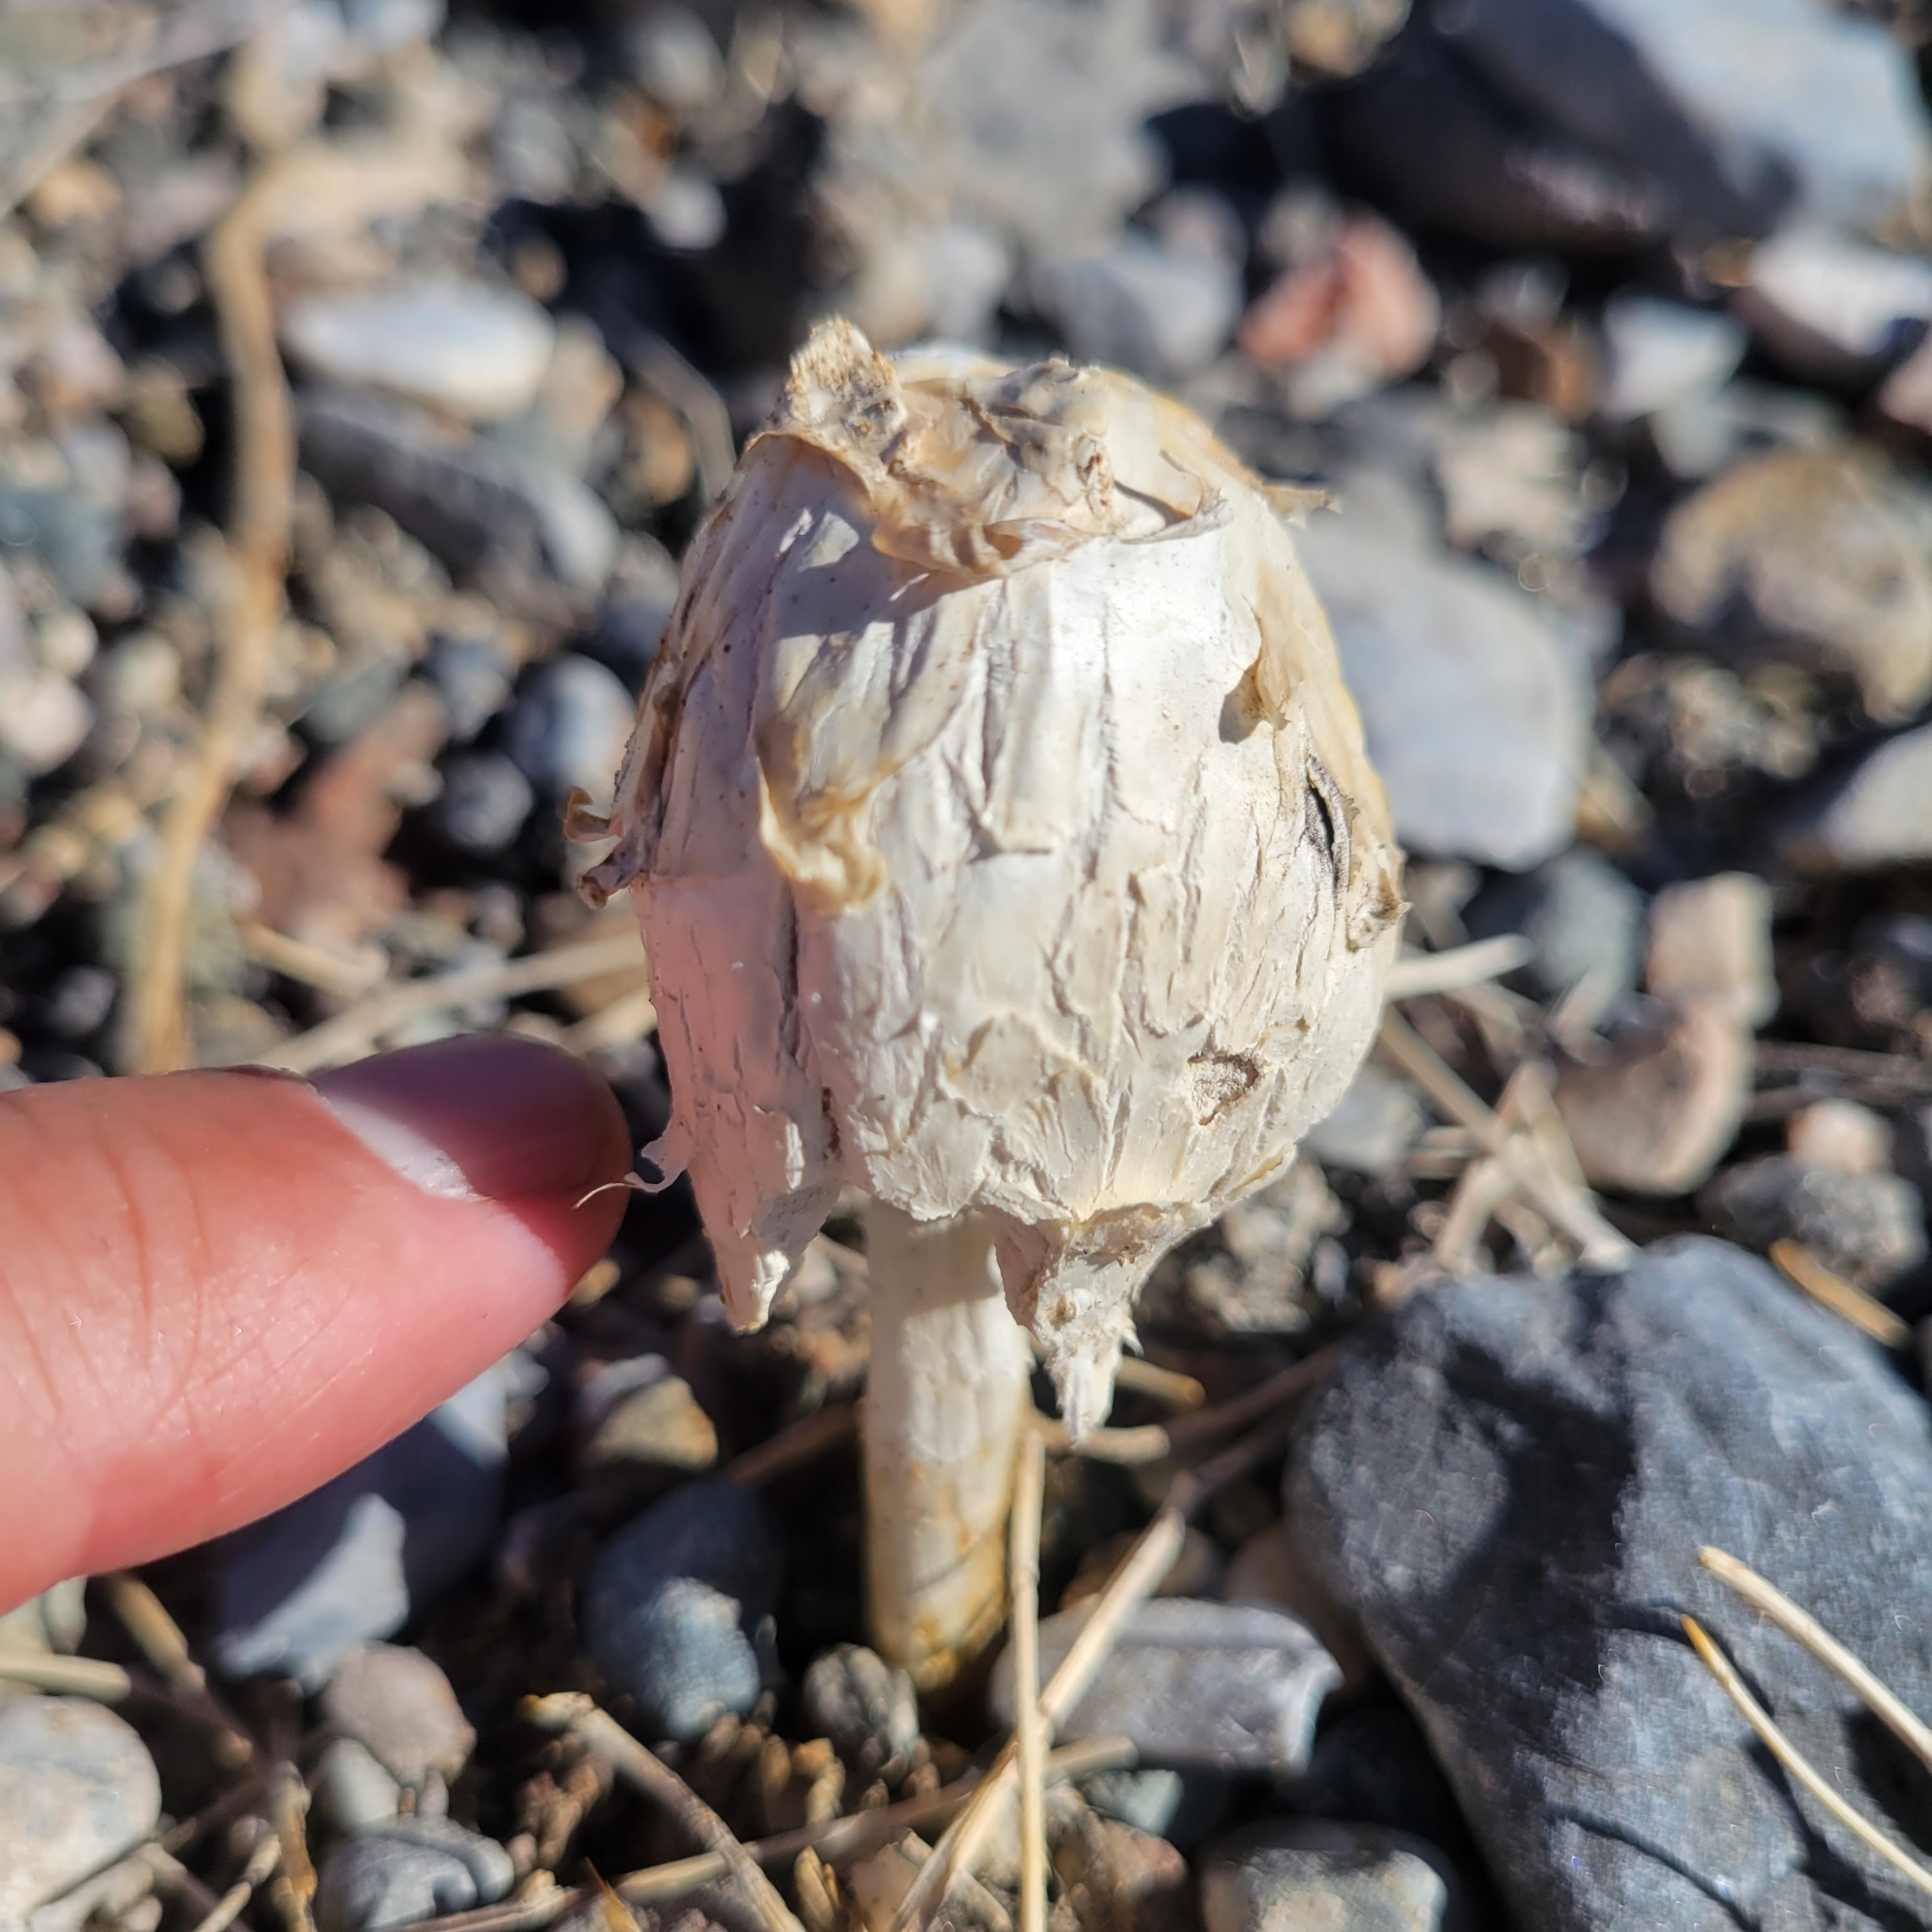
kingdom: Fungi
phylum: Basidiomycota
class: Agaricomycetes
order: Agaricales
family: Agaricaceae
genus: Podaxis
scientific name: Podaxis pistillaris
